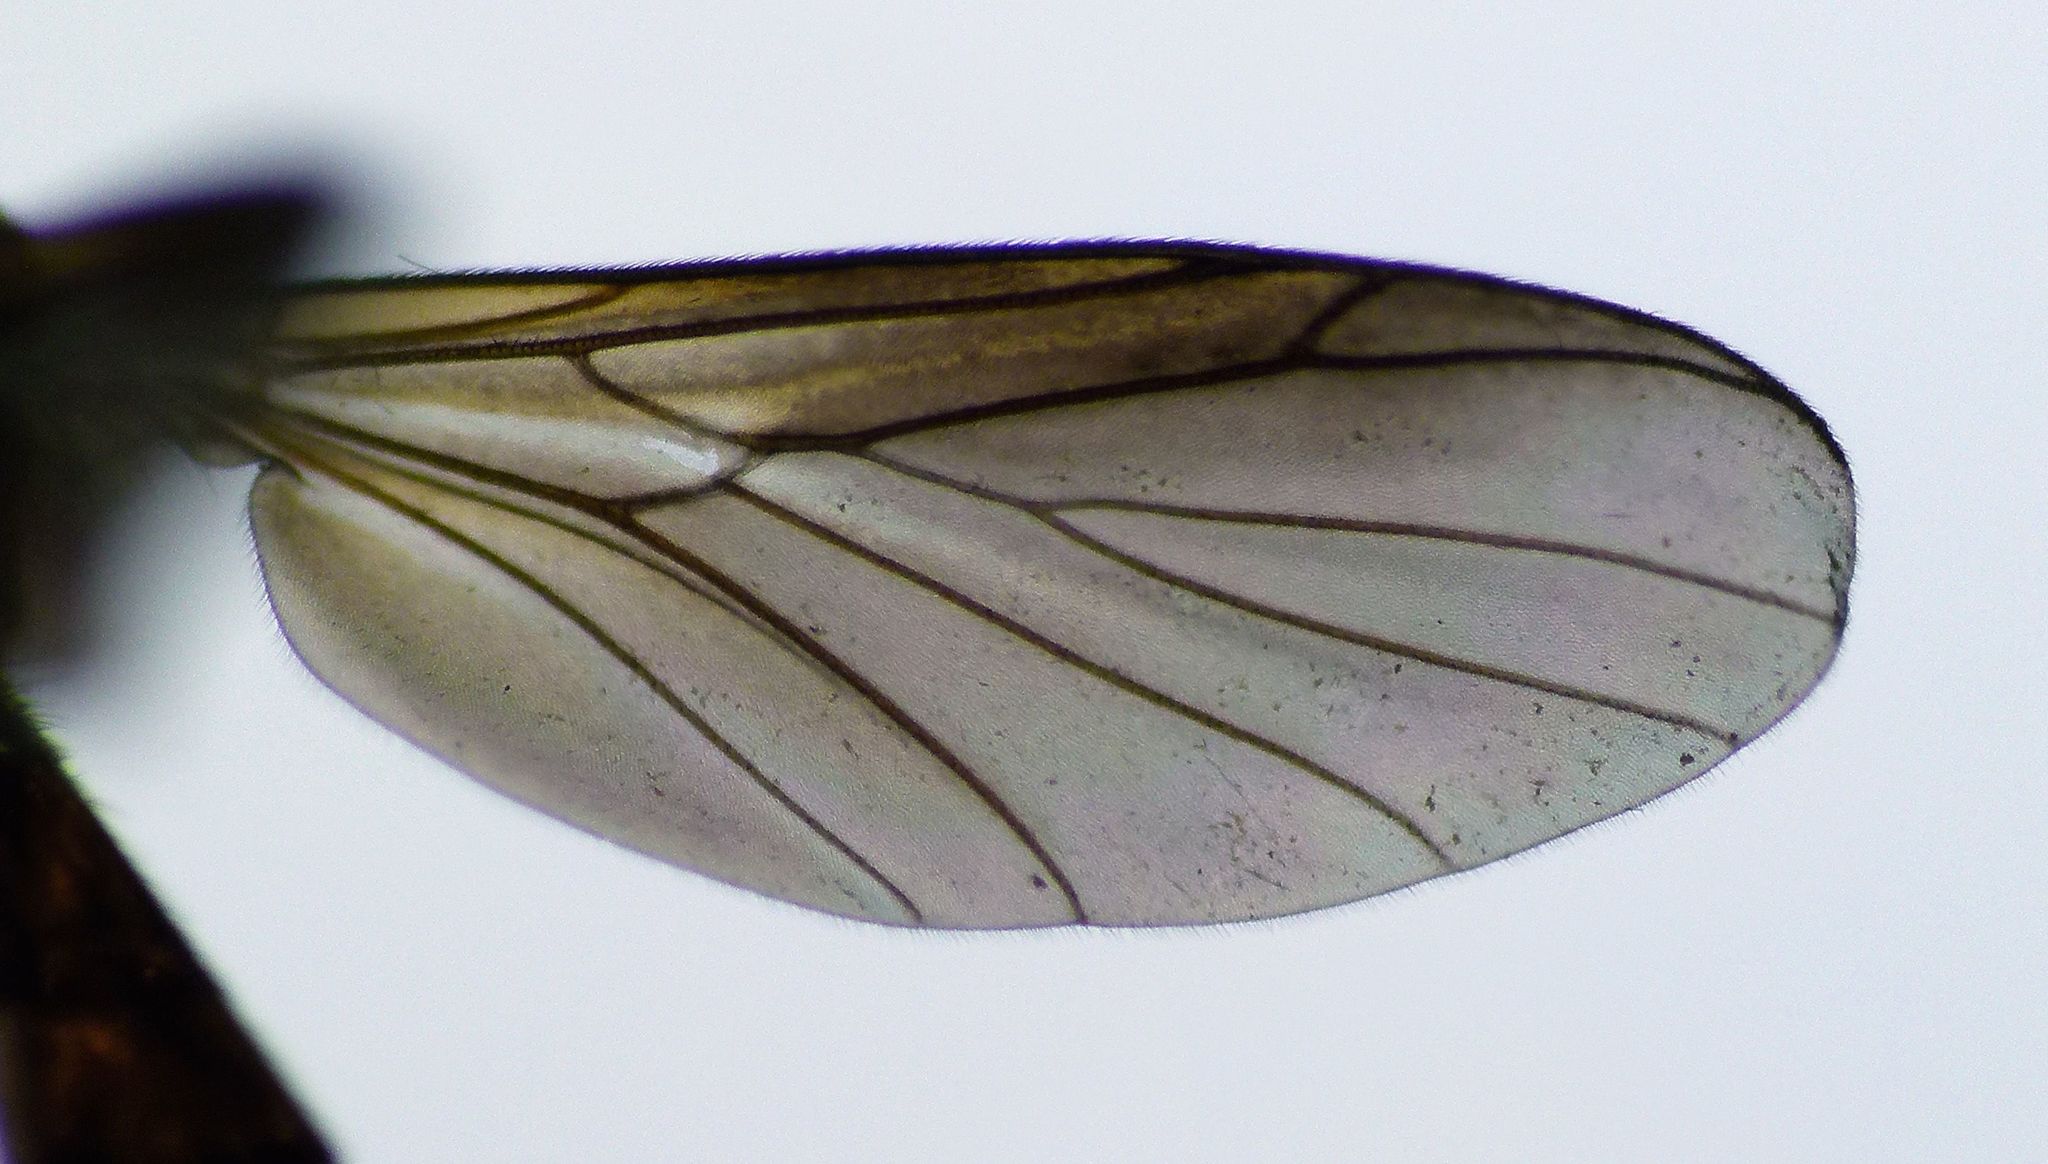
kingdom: Animalia
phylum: Arthropoda
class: Insecta
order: Diptera
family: Keroplatidae
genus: Pyrtaula
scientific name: Pyrtaula
